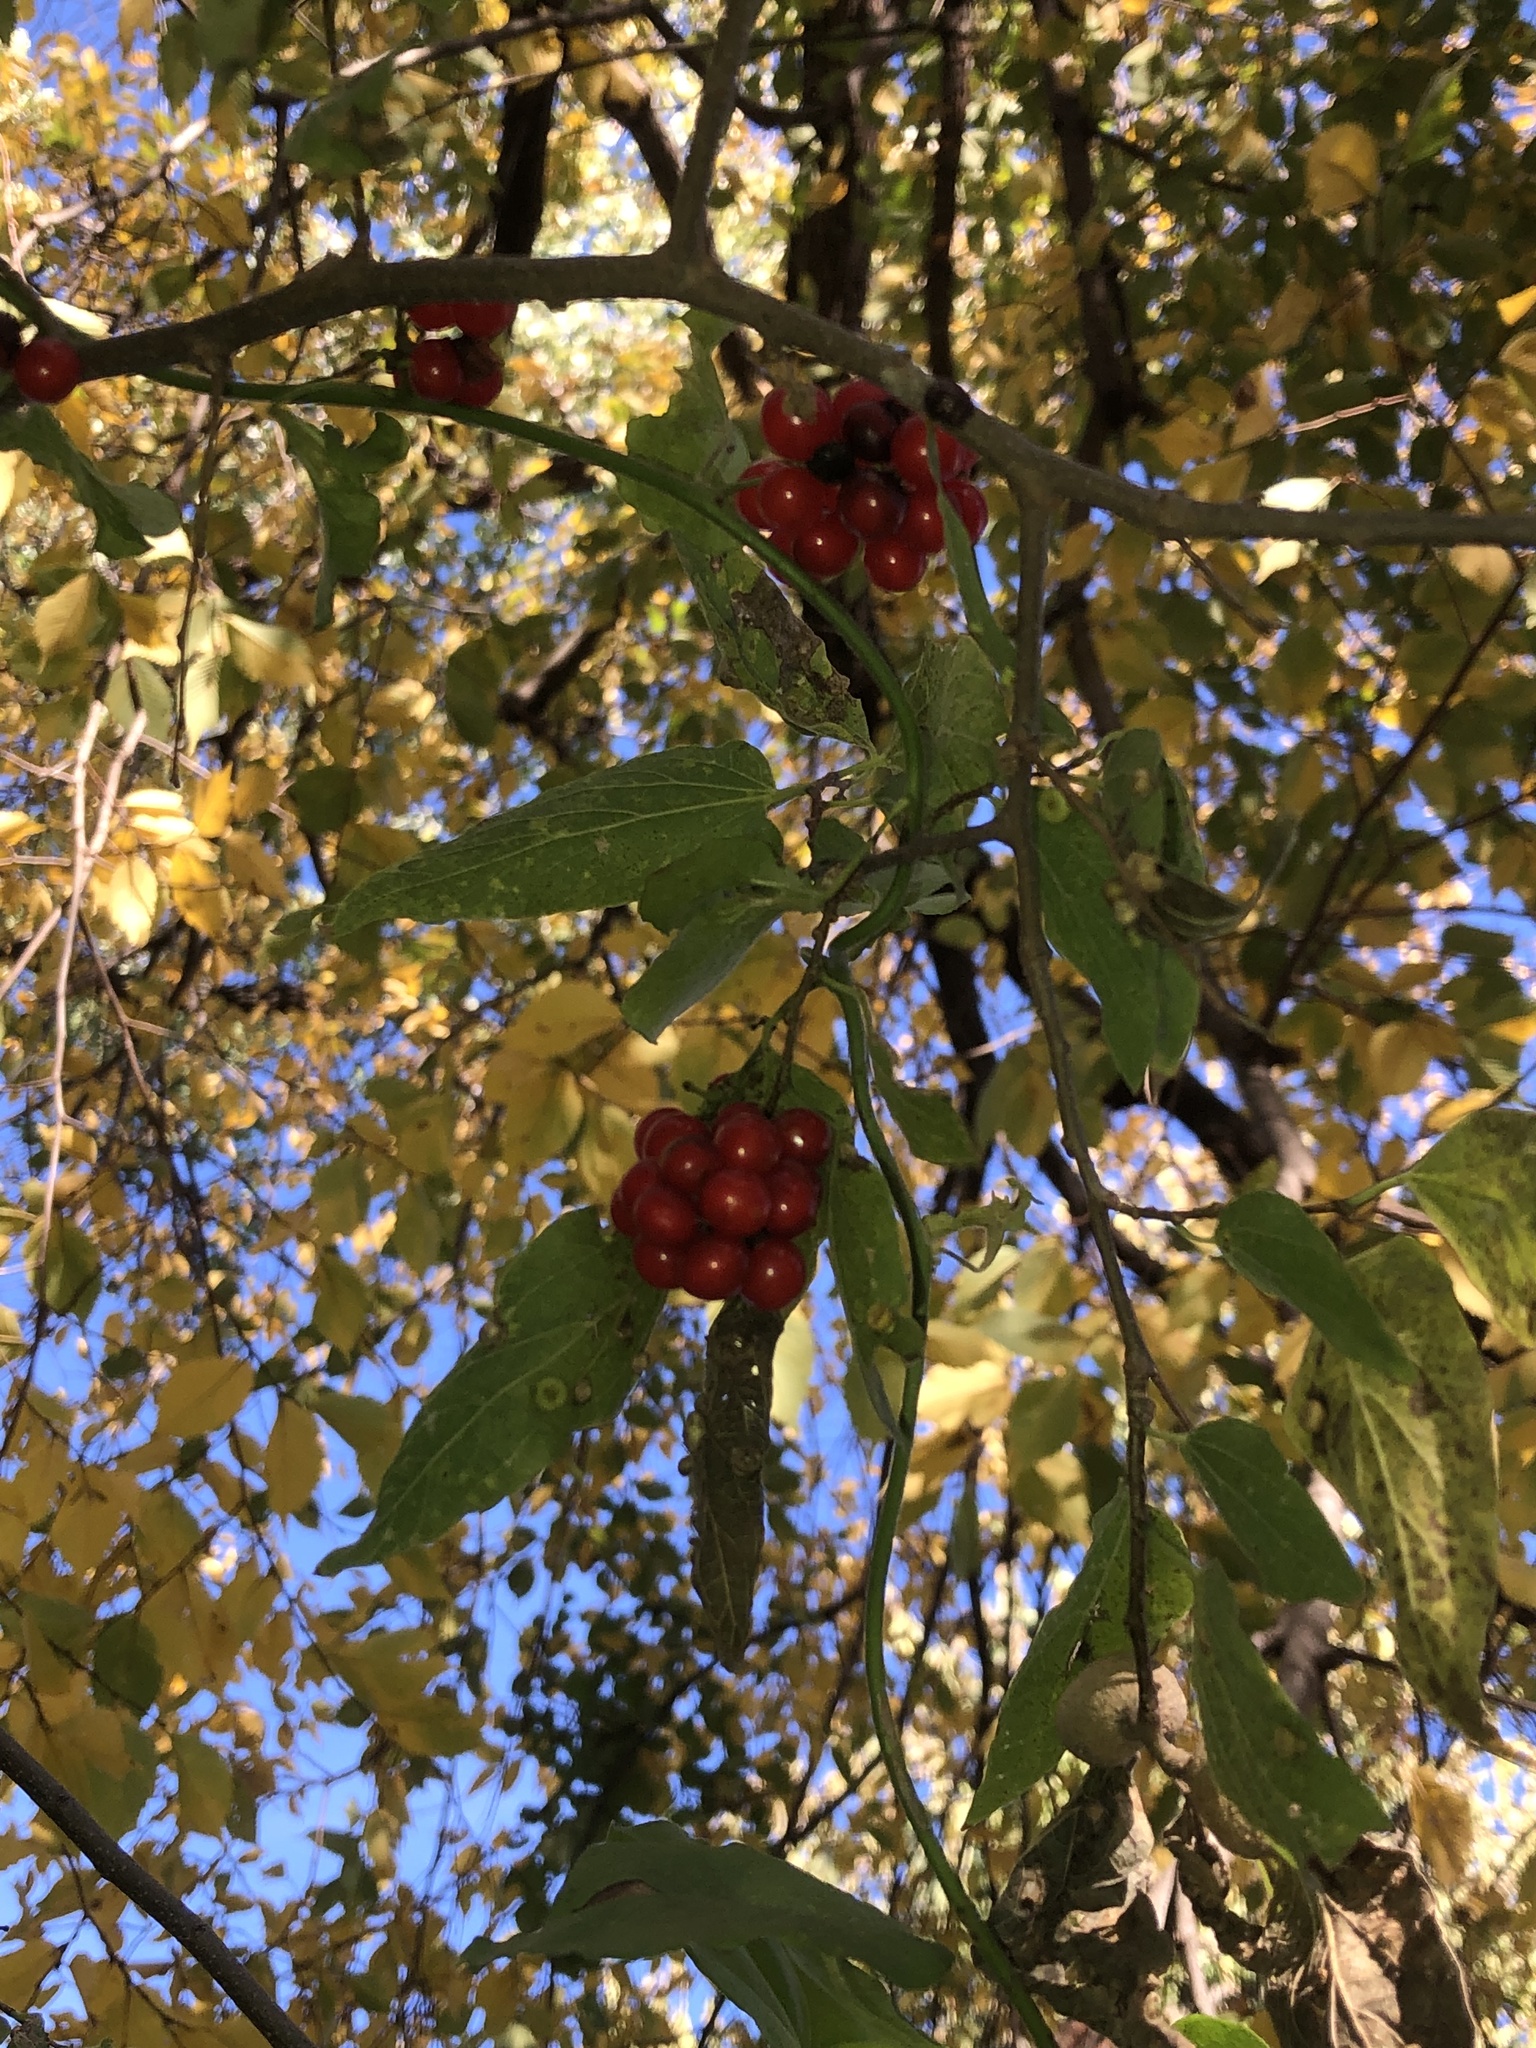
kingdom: Plantae
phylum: Tracheophyta
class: Magnoliopsida
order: Ranunculales
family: Menispermaceae
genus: Cocculus
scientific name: Cocculus carolinus
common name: Carolina moonseed
